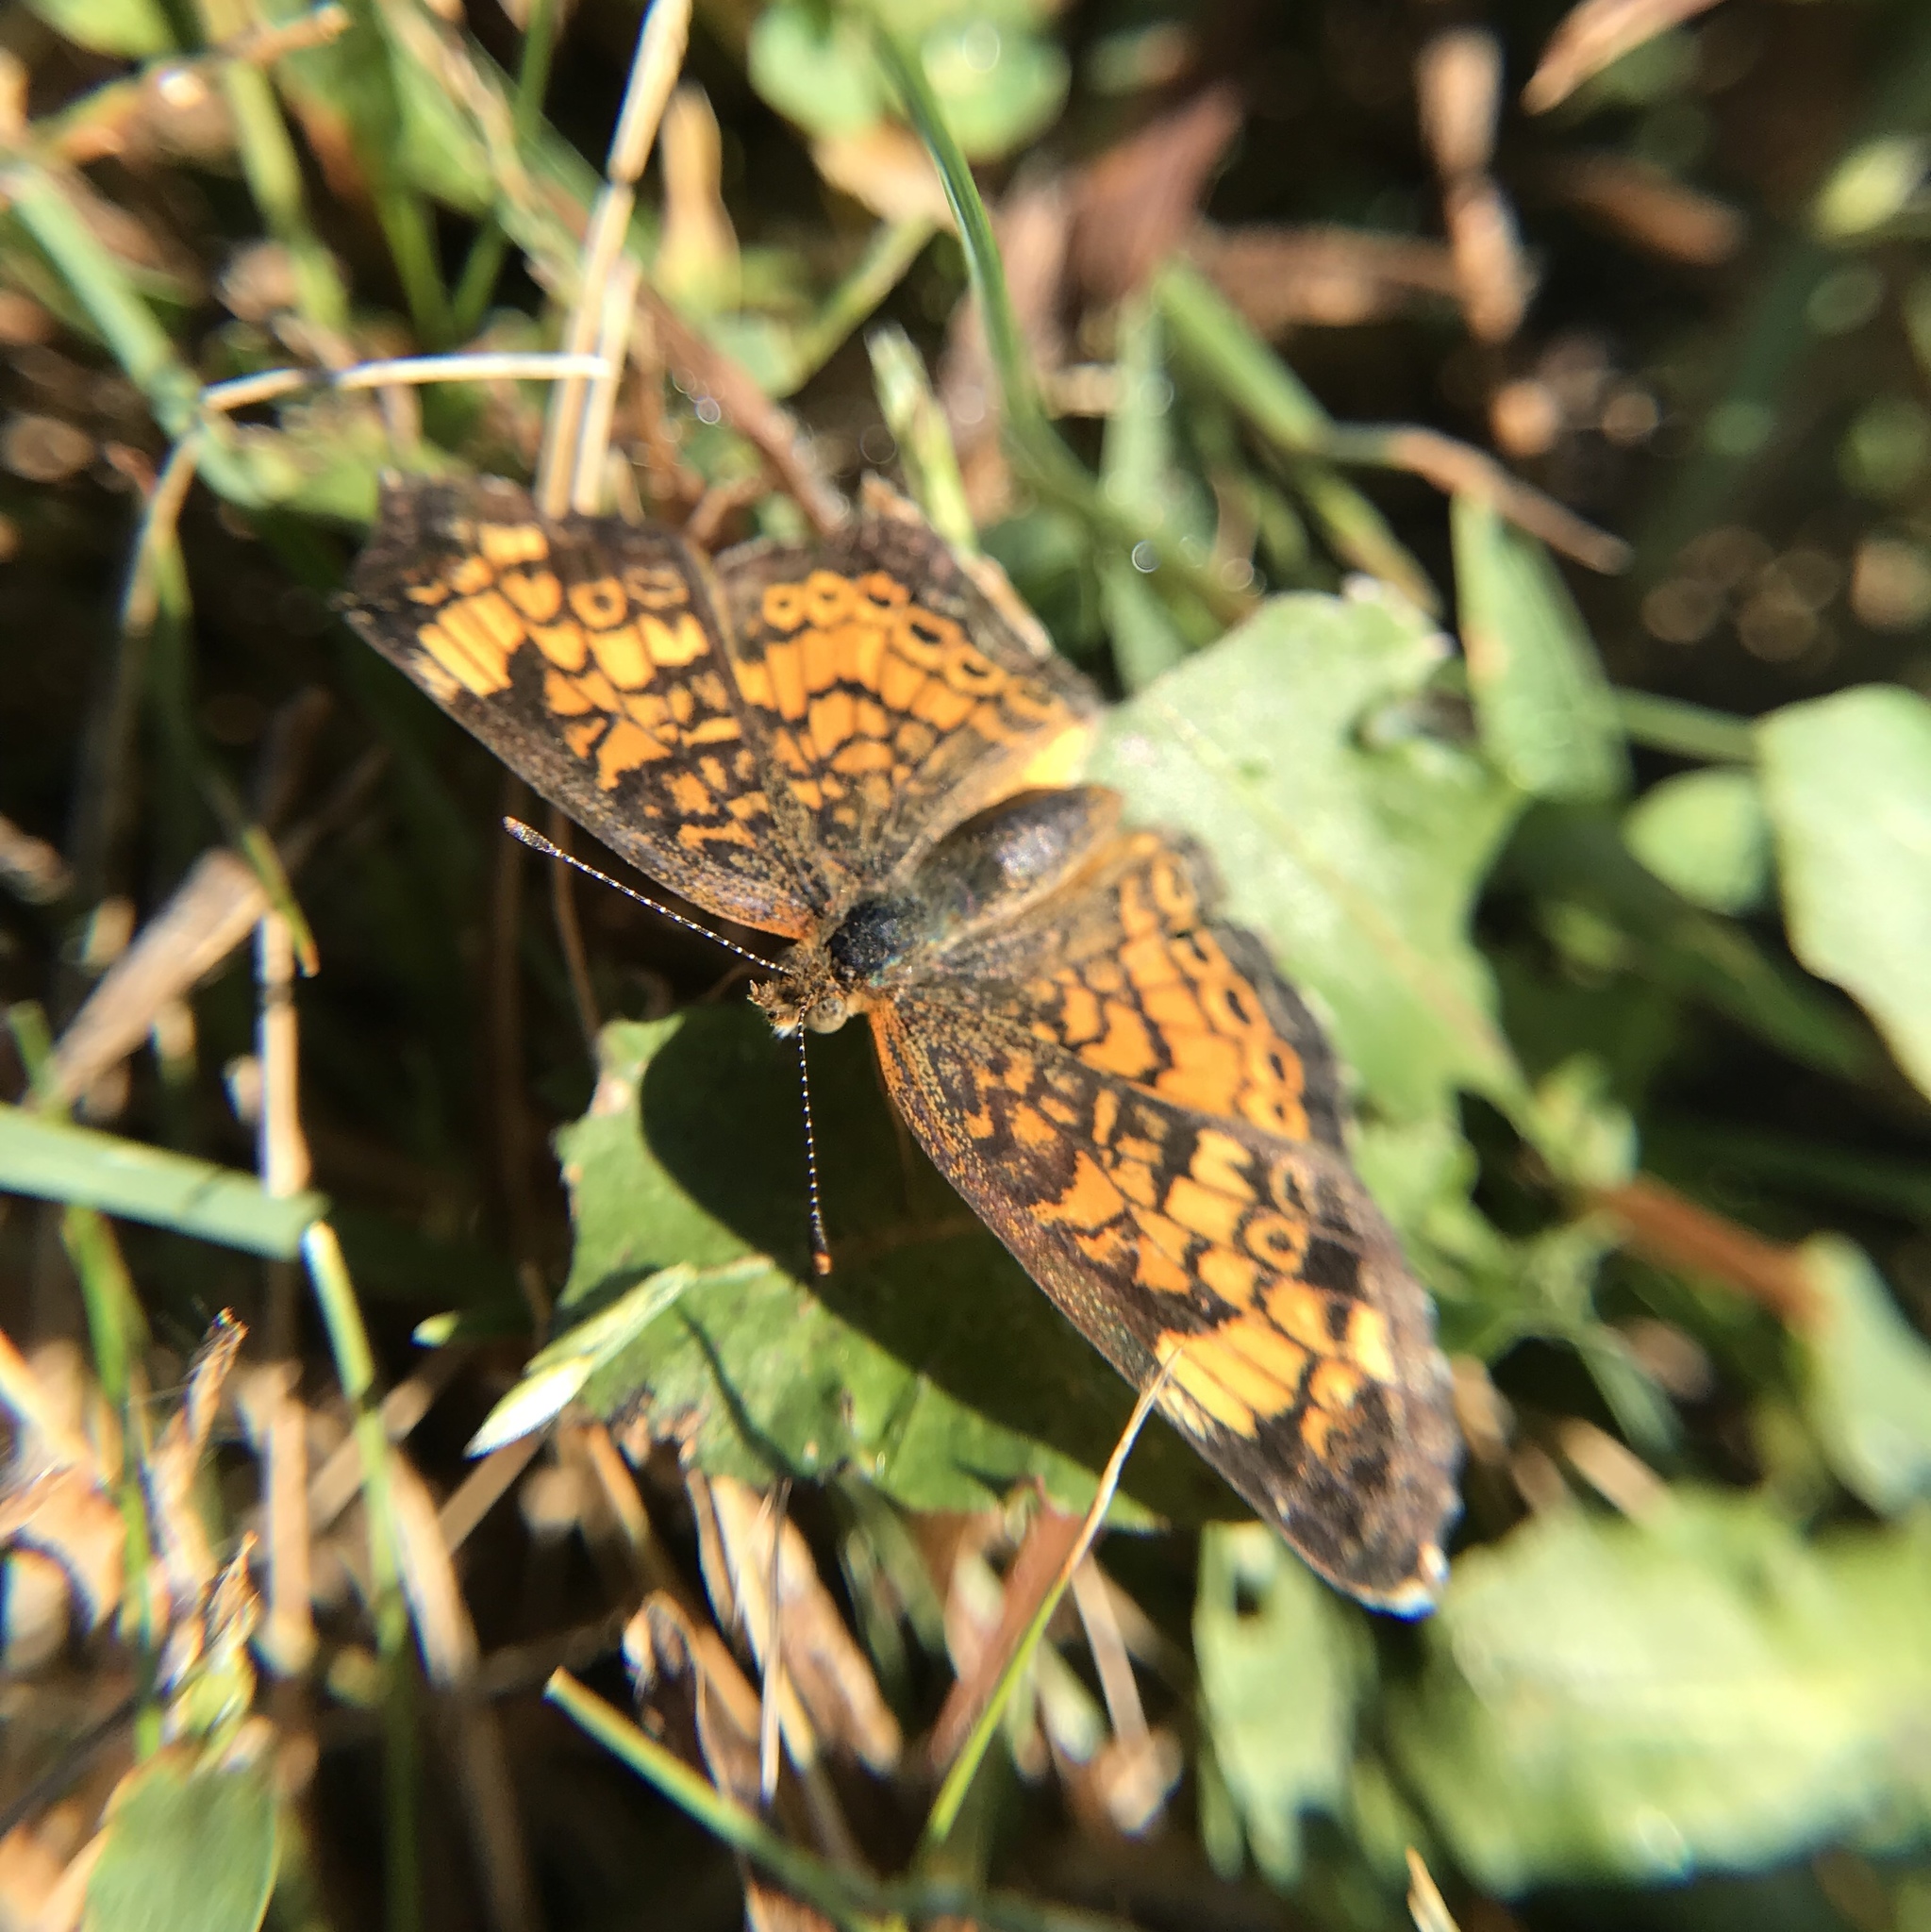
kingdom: Animalia
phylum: Arthropoda
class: Insecta
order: Lepidoptera
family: Nymphalidae
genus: Phyciodes
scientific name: Phyciodes tharos
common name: Pearl crescent
